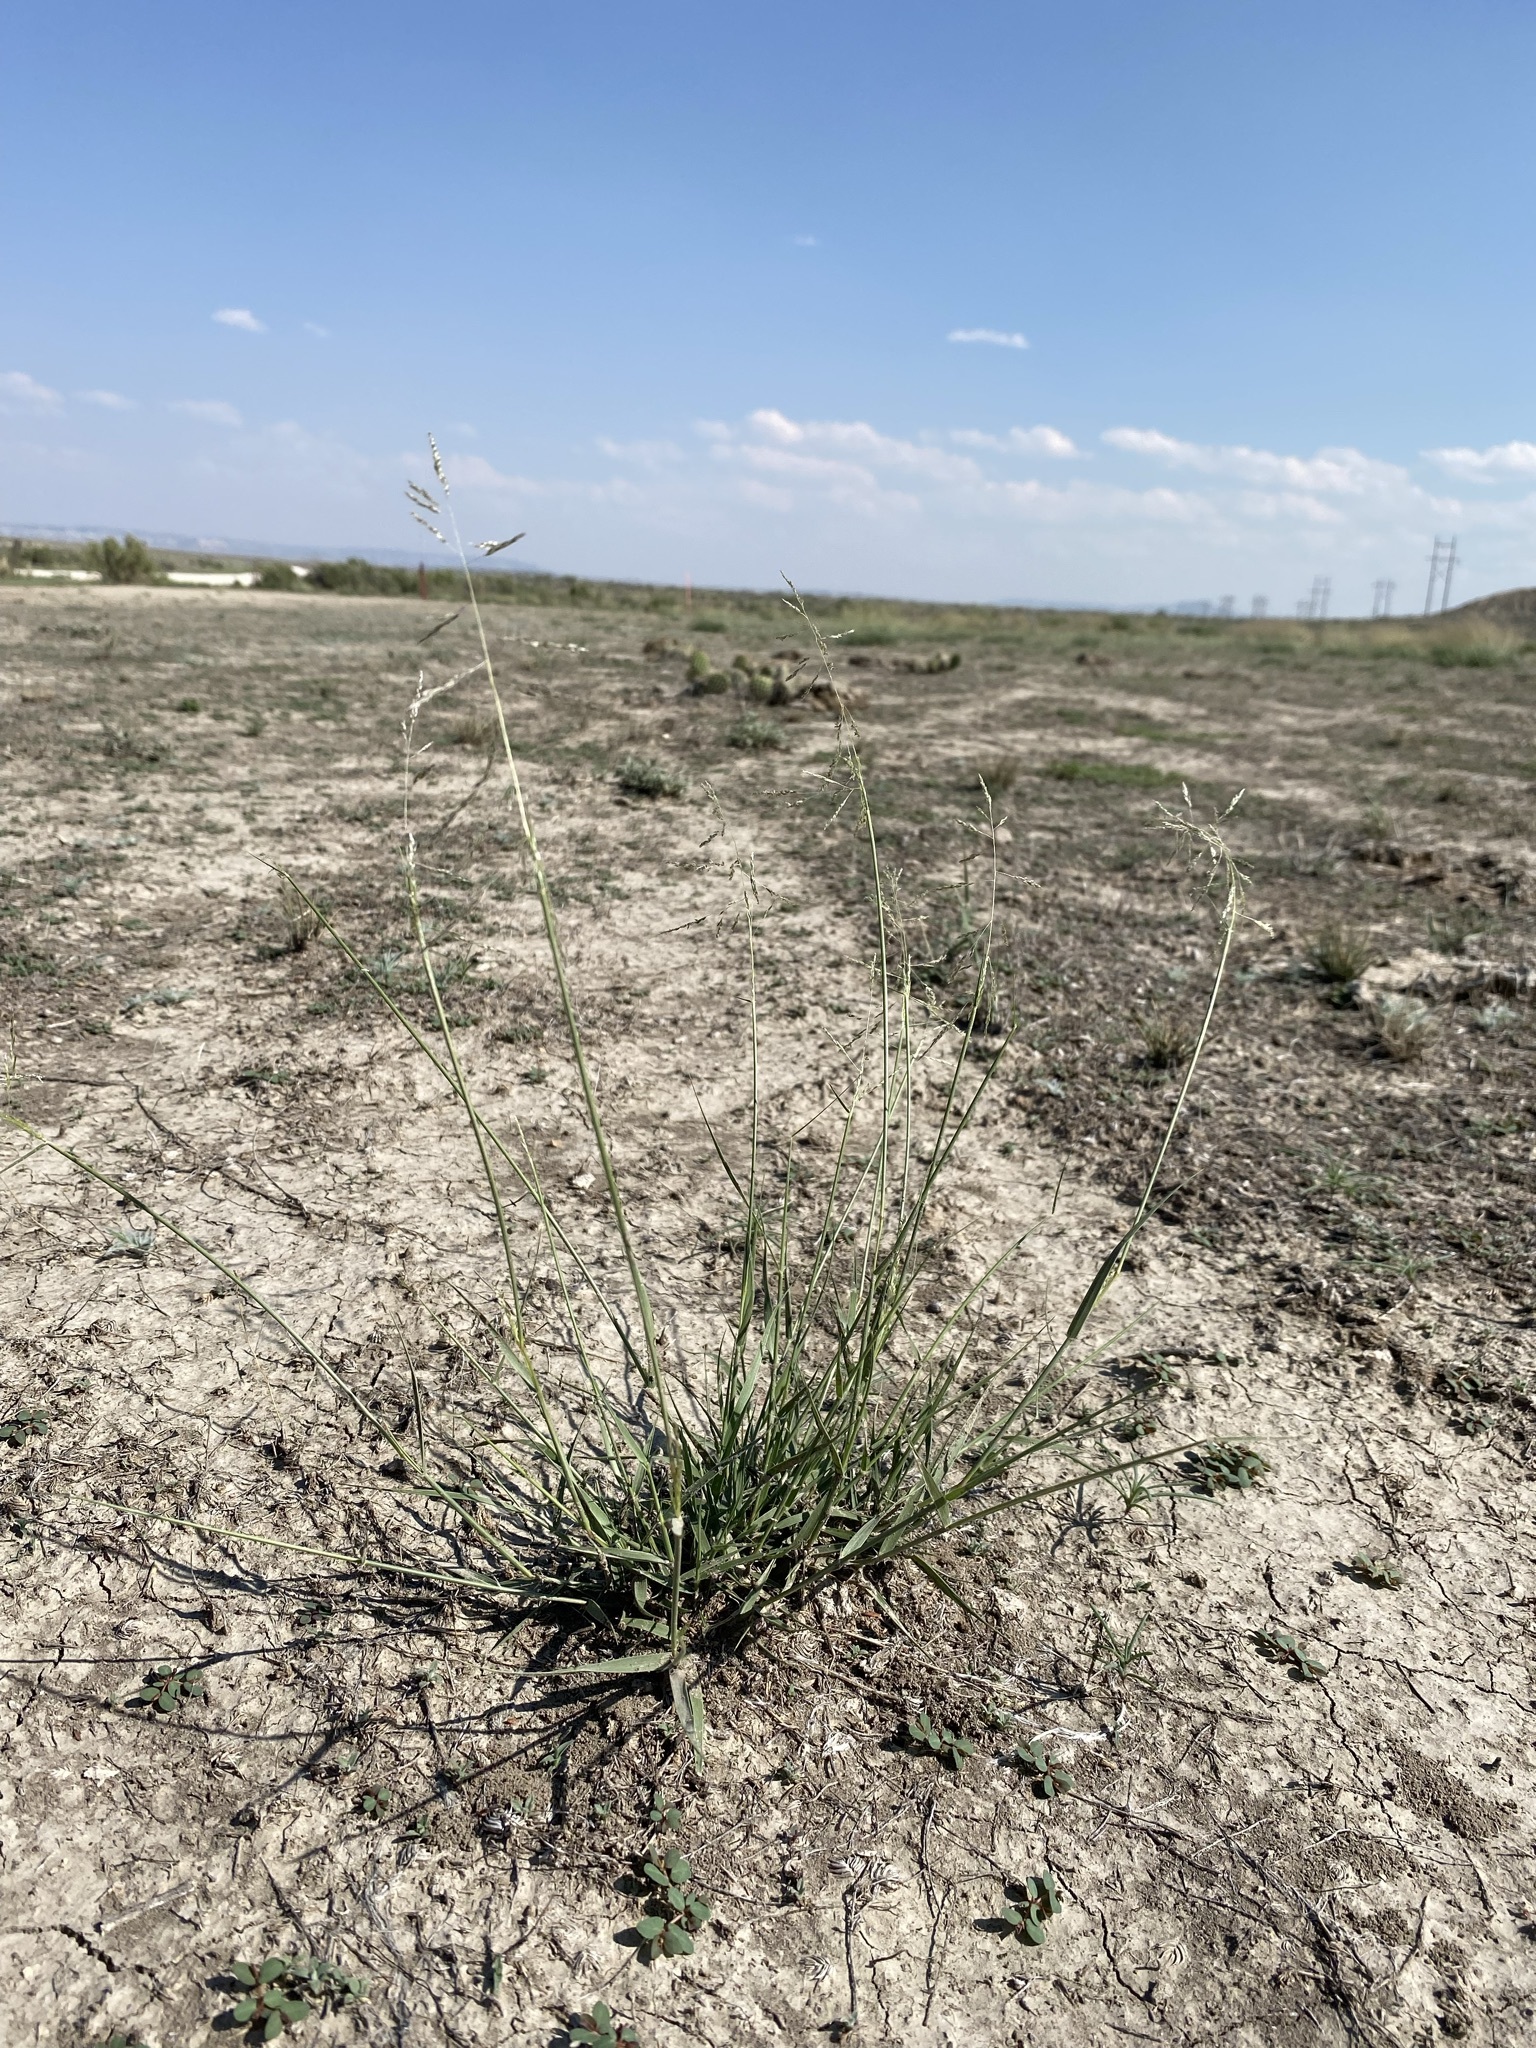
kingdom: Plantae
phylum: Tracheophyta
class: Liliopsida
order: Poales
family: Poaceae
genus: Sporobolus
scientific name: Sporobolus cryptandrus
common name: Sand dropseed
